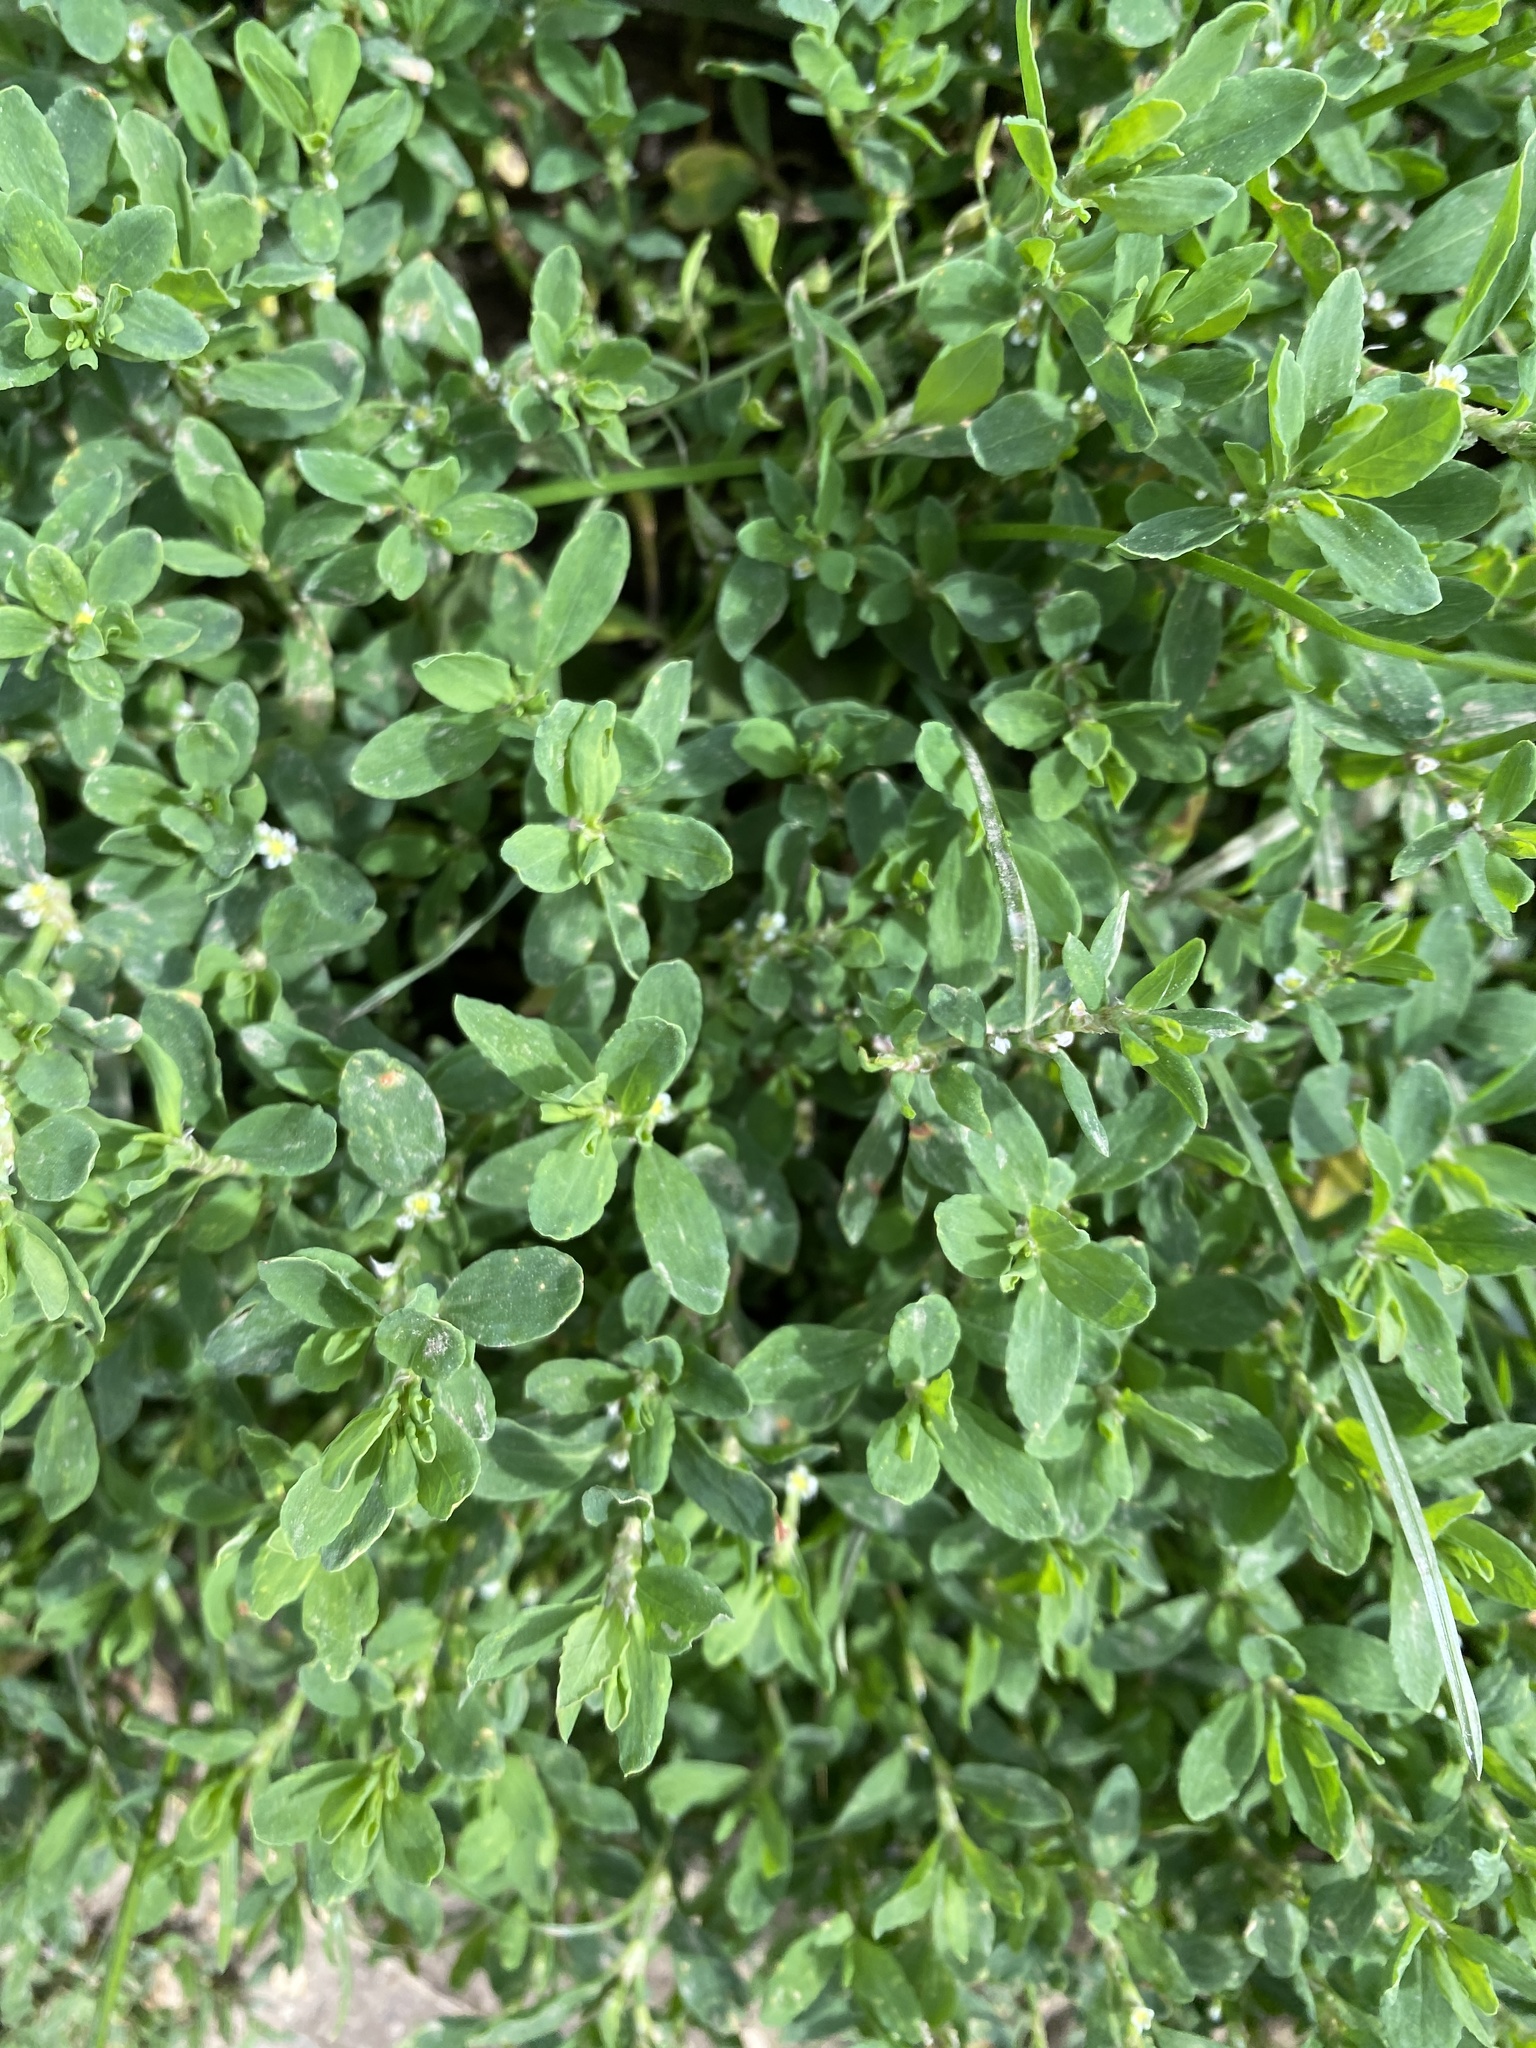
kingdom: Plantae
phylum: Tracheophyta
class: Magnoliopsida
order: Caryophyllales
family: Polygonaceae
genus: Polygonum
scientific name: Polygonum arenastrum
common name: Equal-leaved knotgrass
